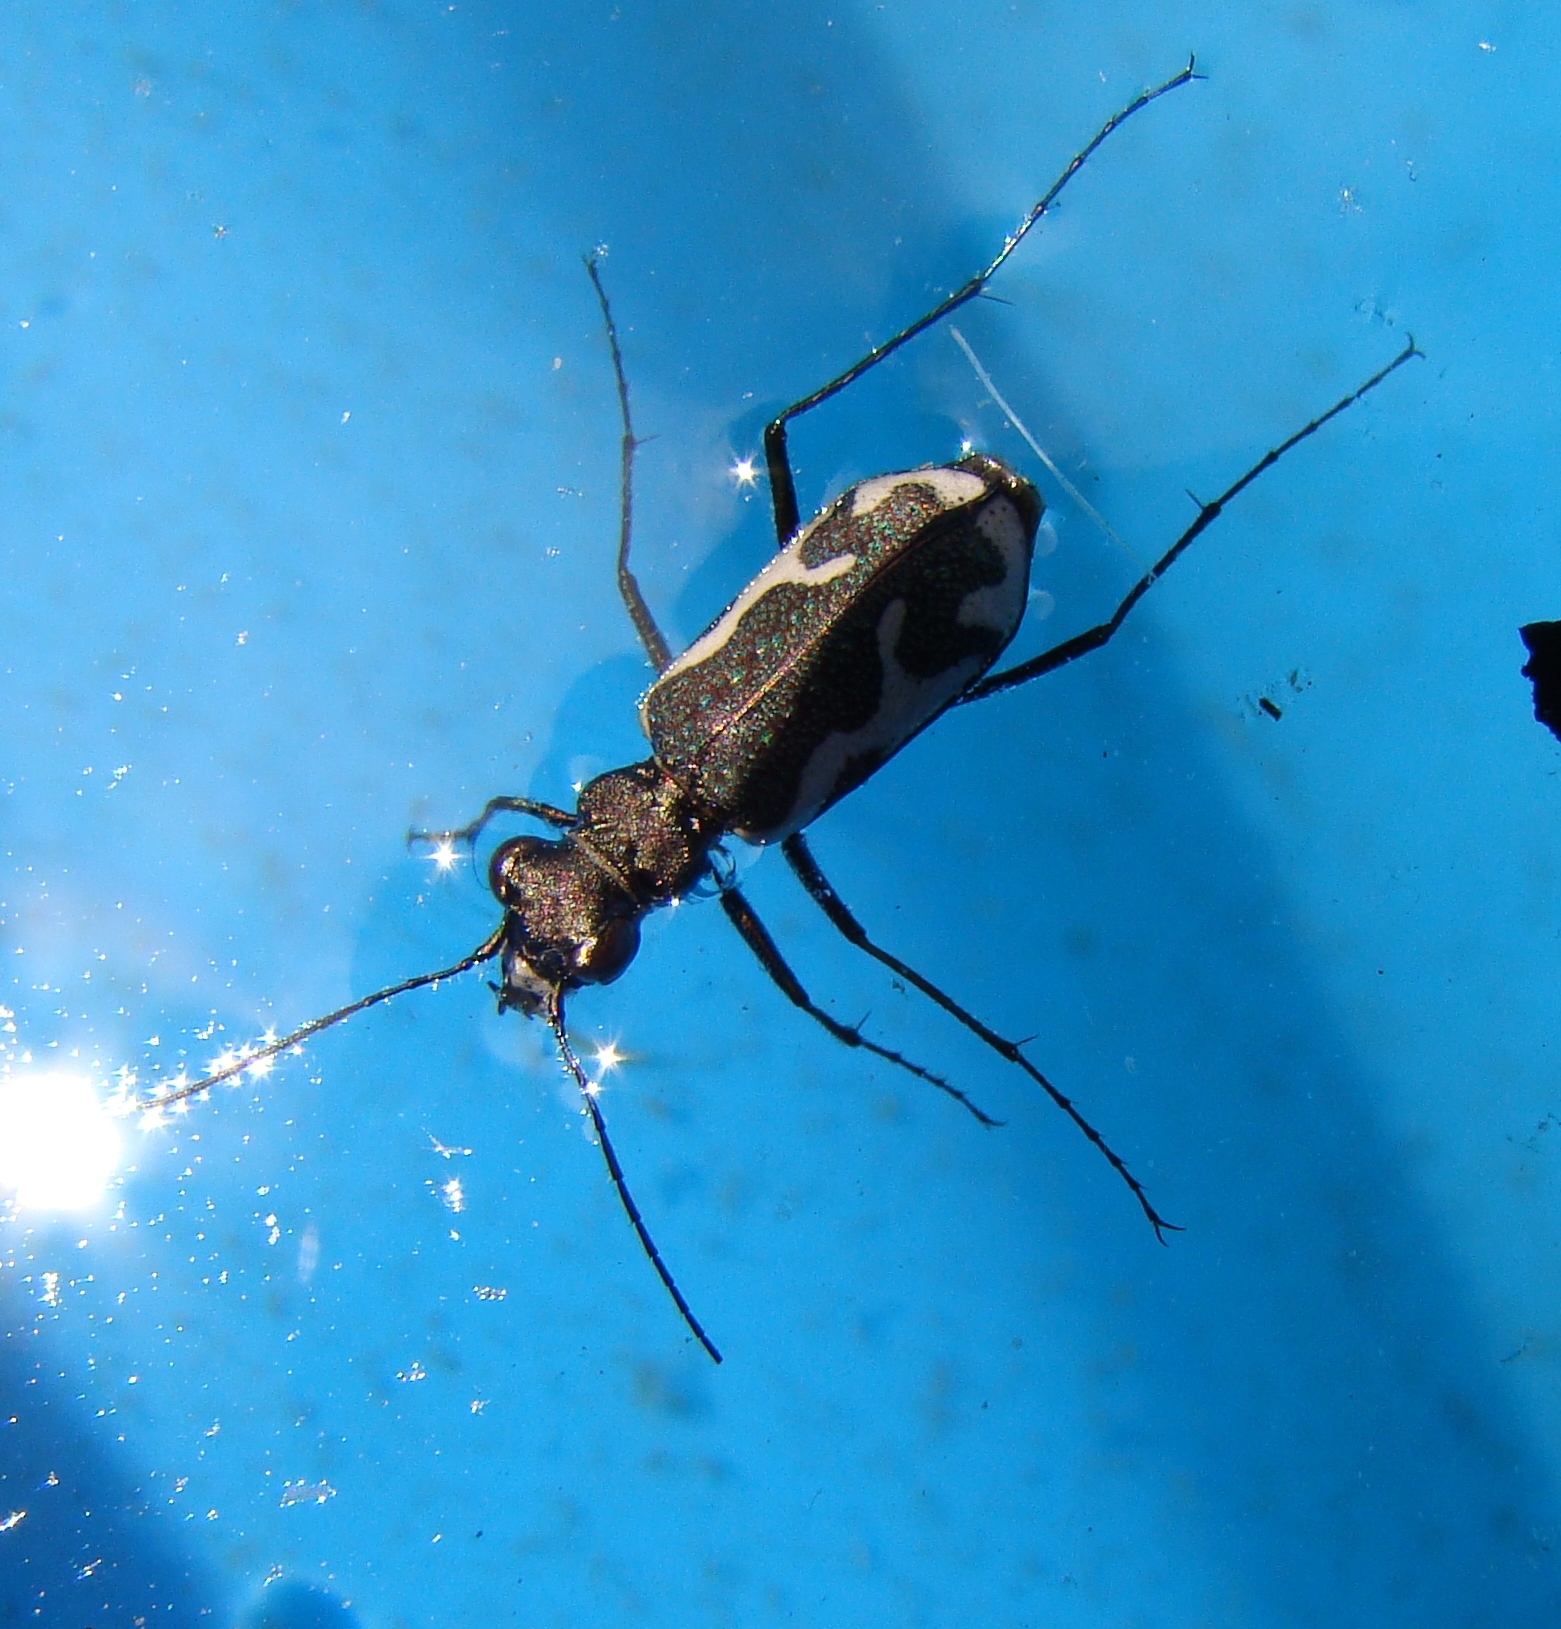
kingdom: Animalia
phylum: Arthropoda
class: Insecta
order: Coleoptera
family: Carabidae
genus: Neocicindela
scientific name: Neocicindela tuberculata
